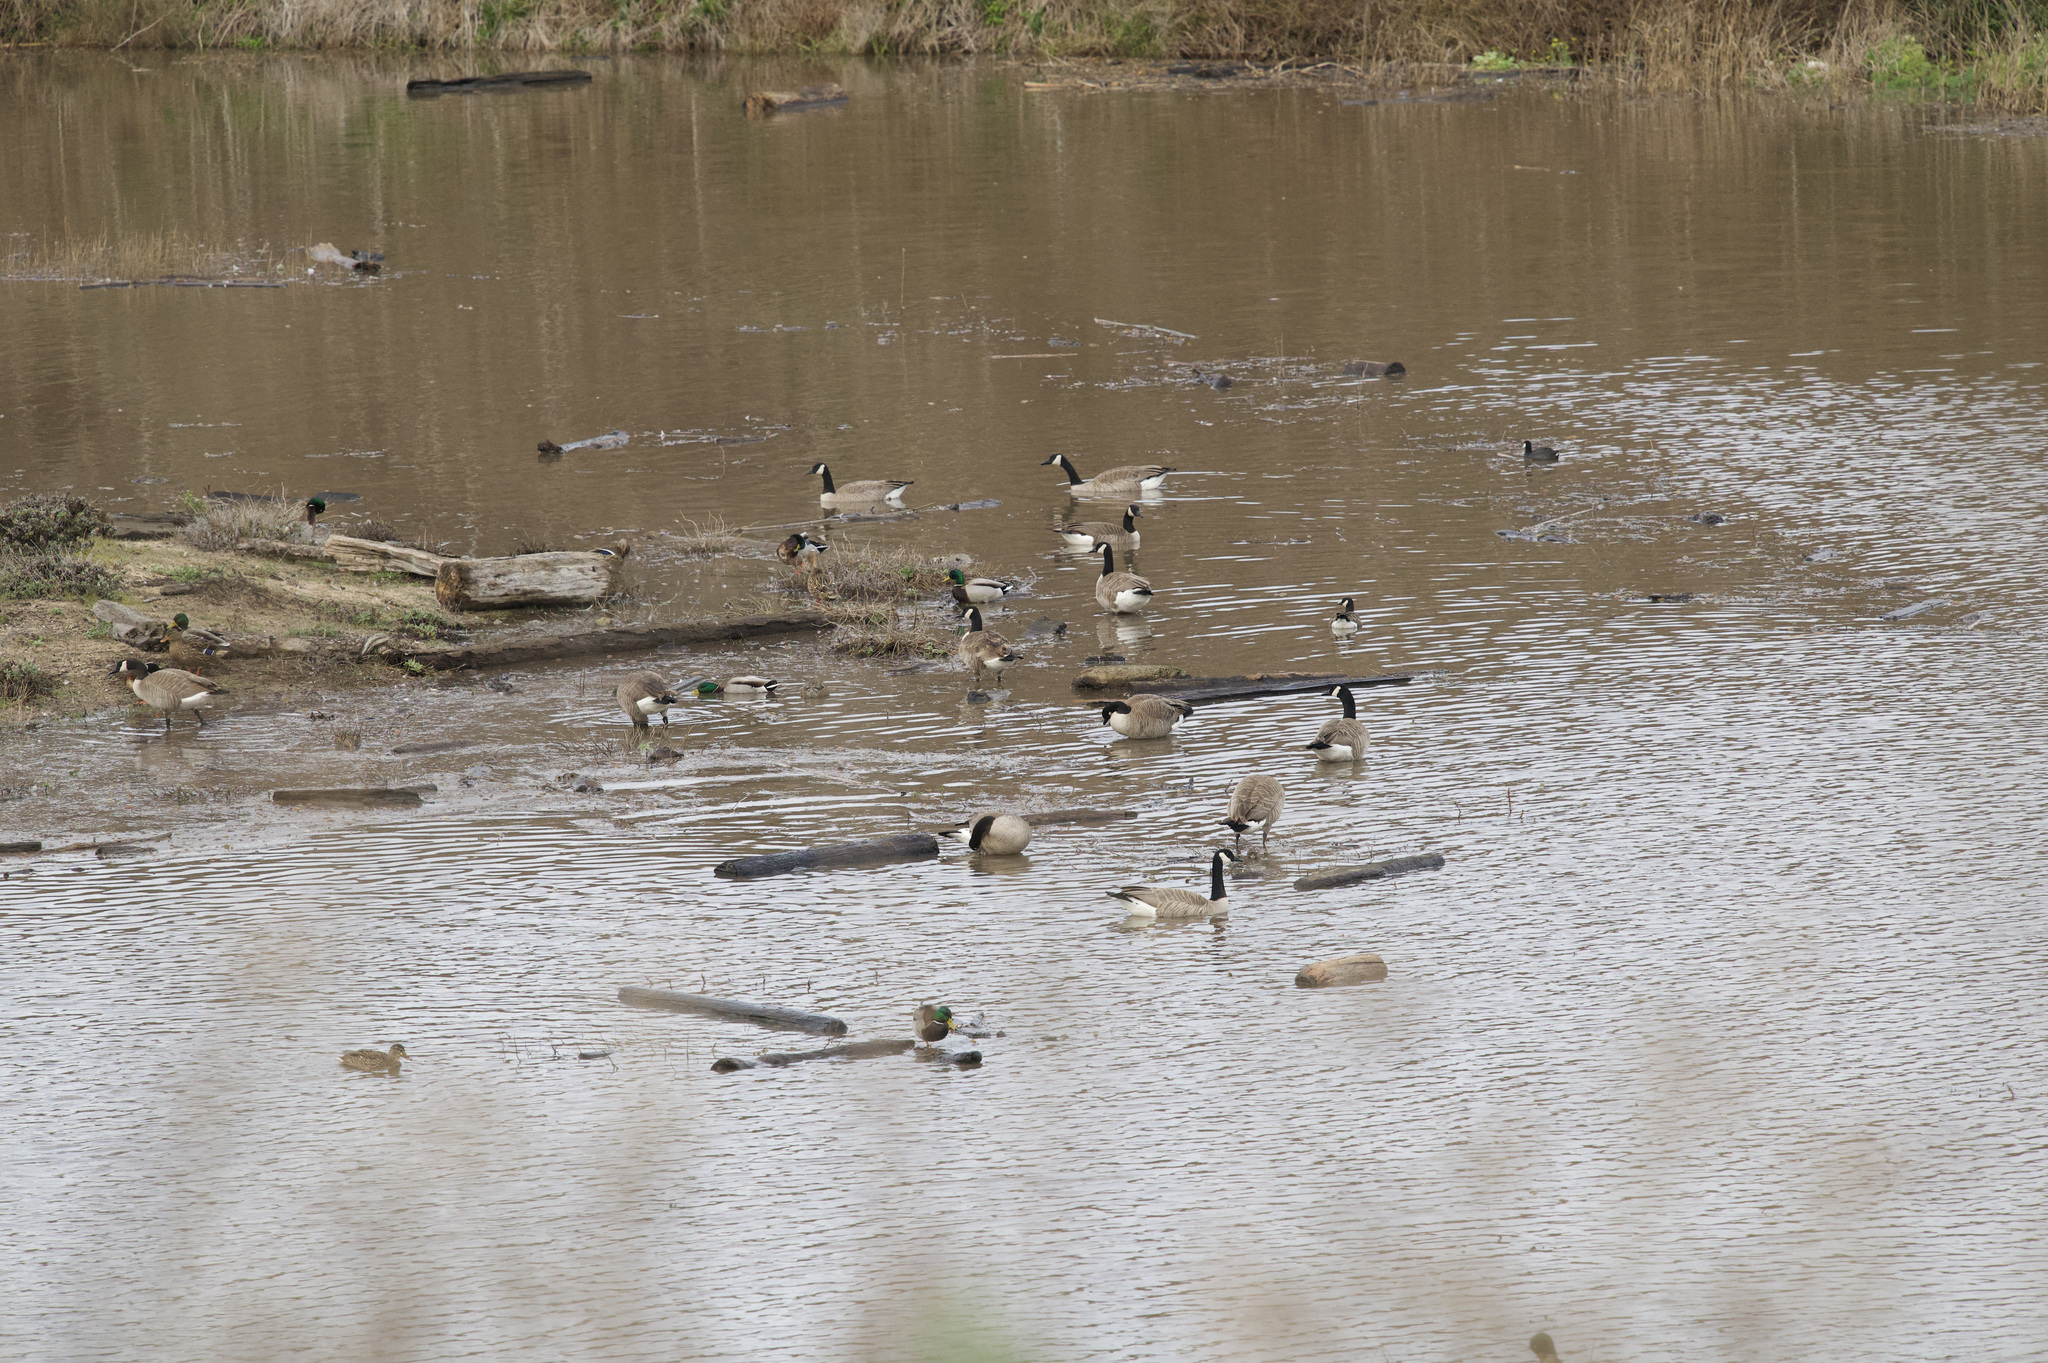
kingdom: Animalia
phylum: Chordata
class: Aves
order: Anseriformes
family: Anatidae
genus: Branta
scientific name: Branta canadensis
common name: Canada goose
